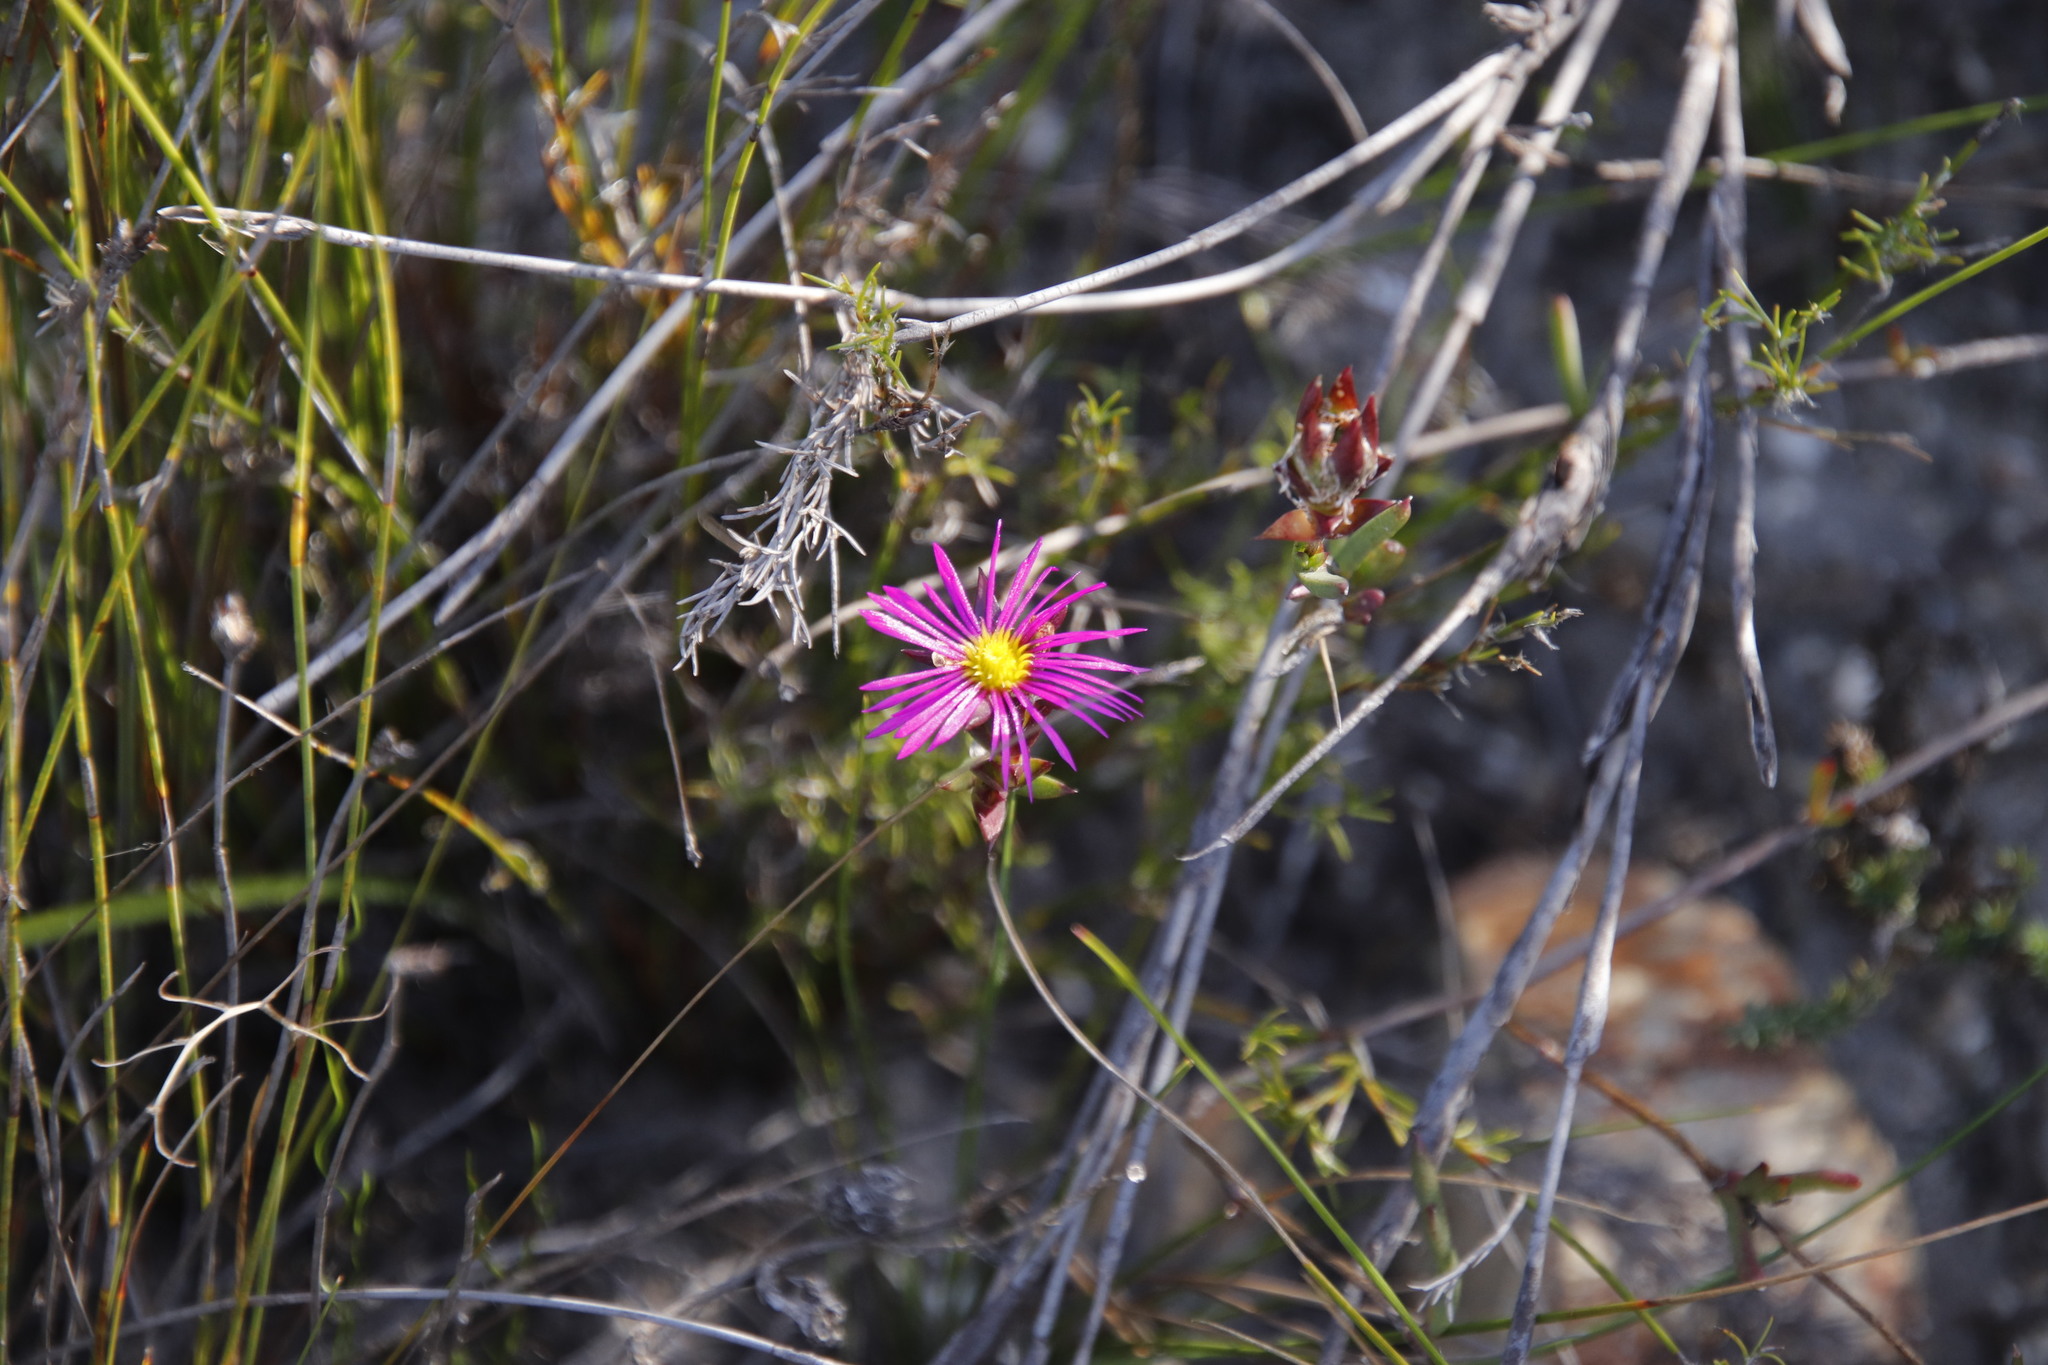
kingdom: Plantae
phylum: Tracheophyta
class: Magnoliopsida
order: Caryophyllales
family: Aizoaceae
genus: Erepsia
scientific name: Erepsia anceps
